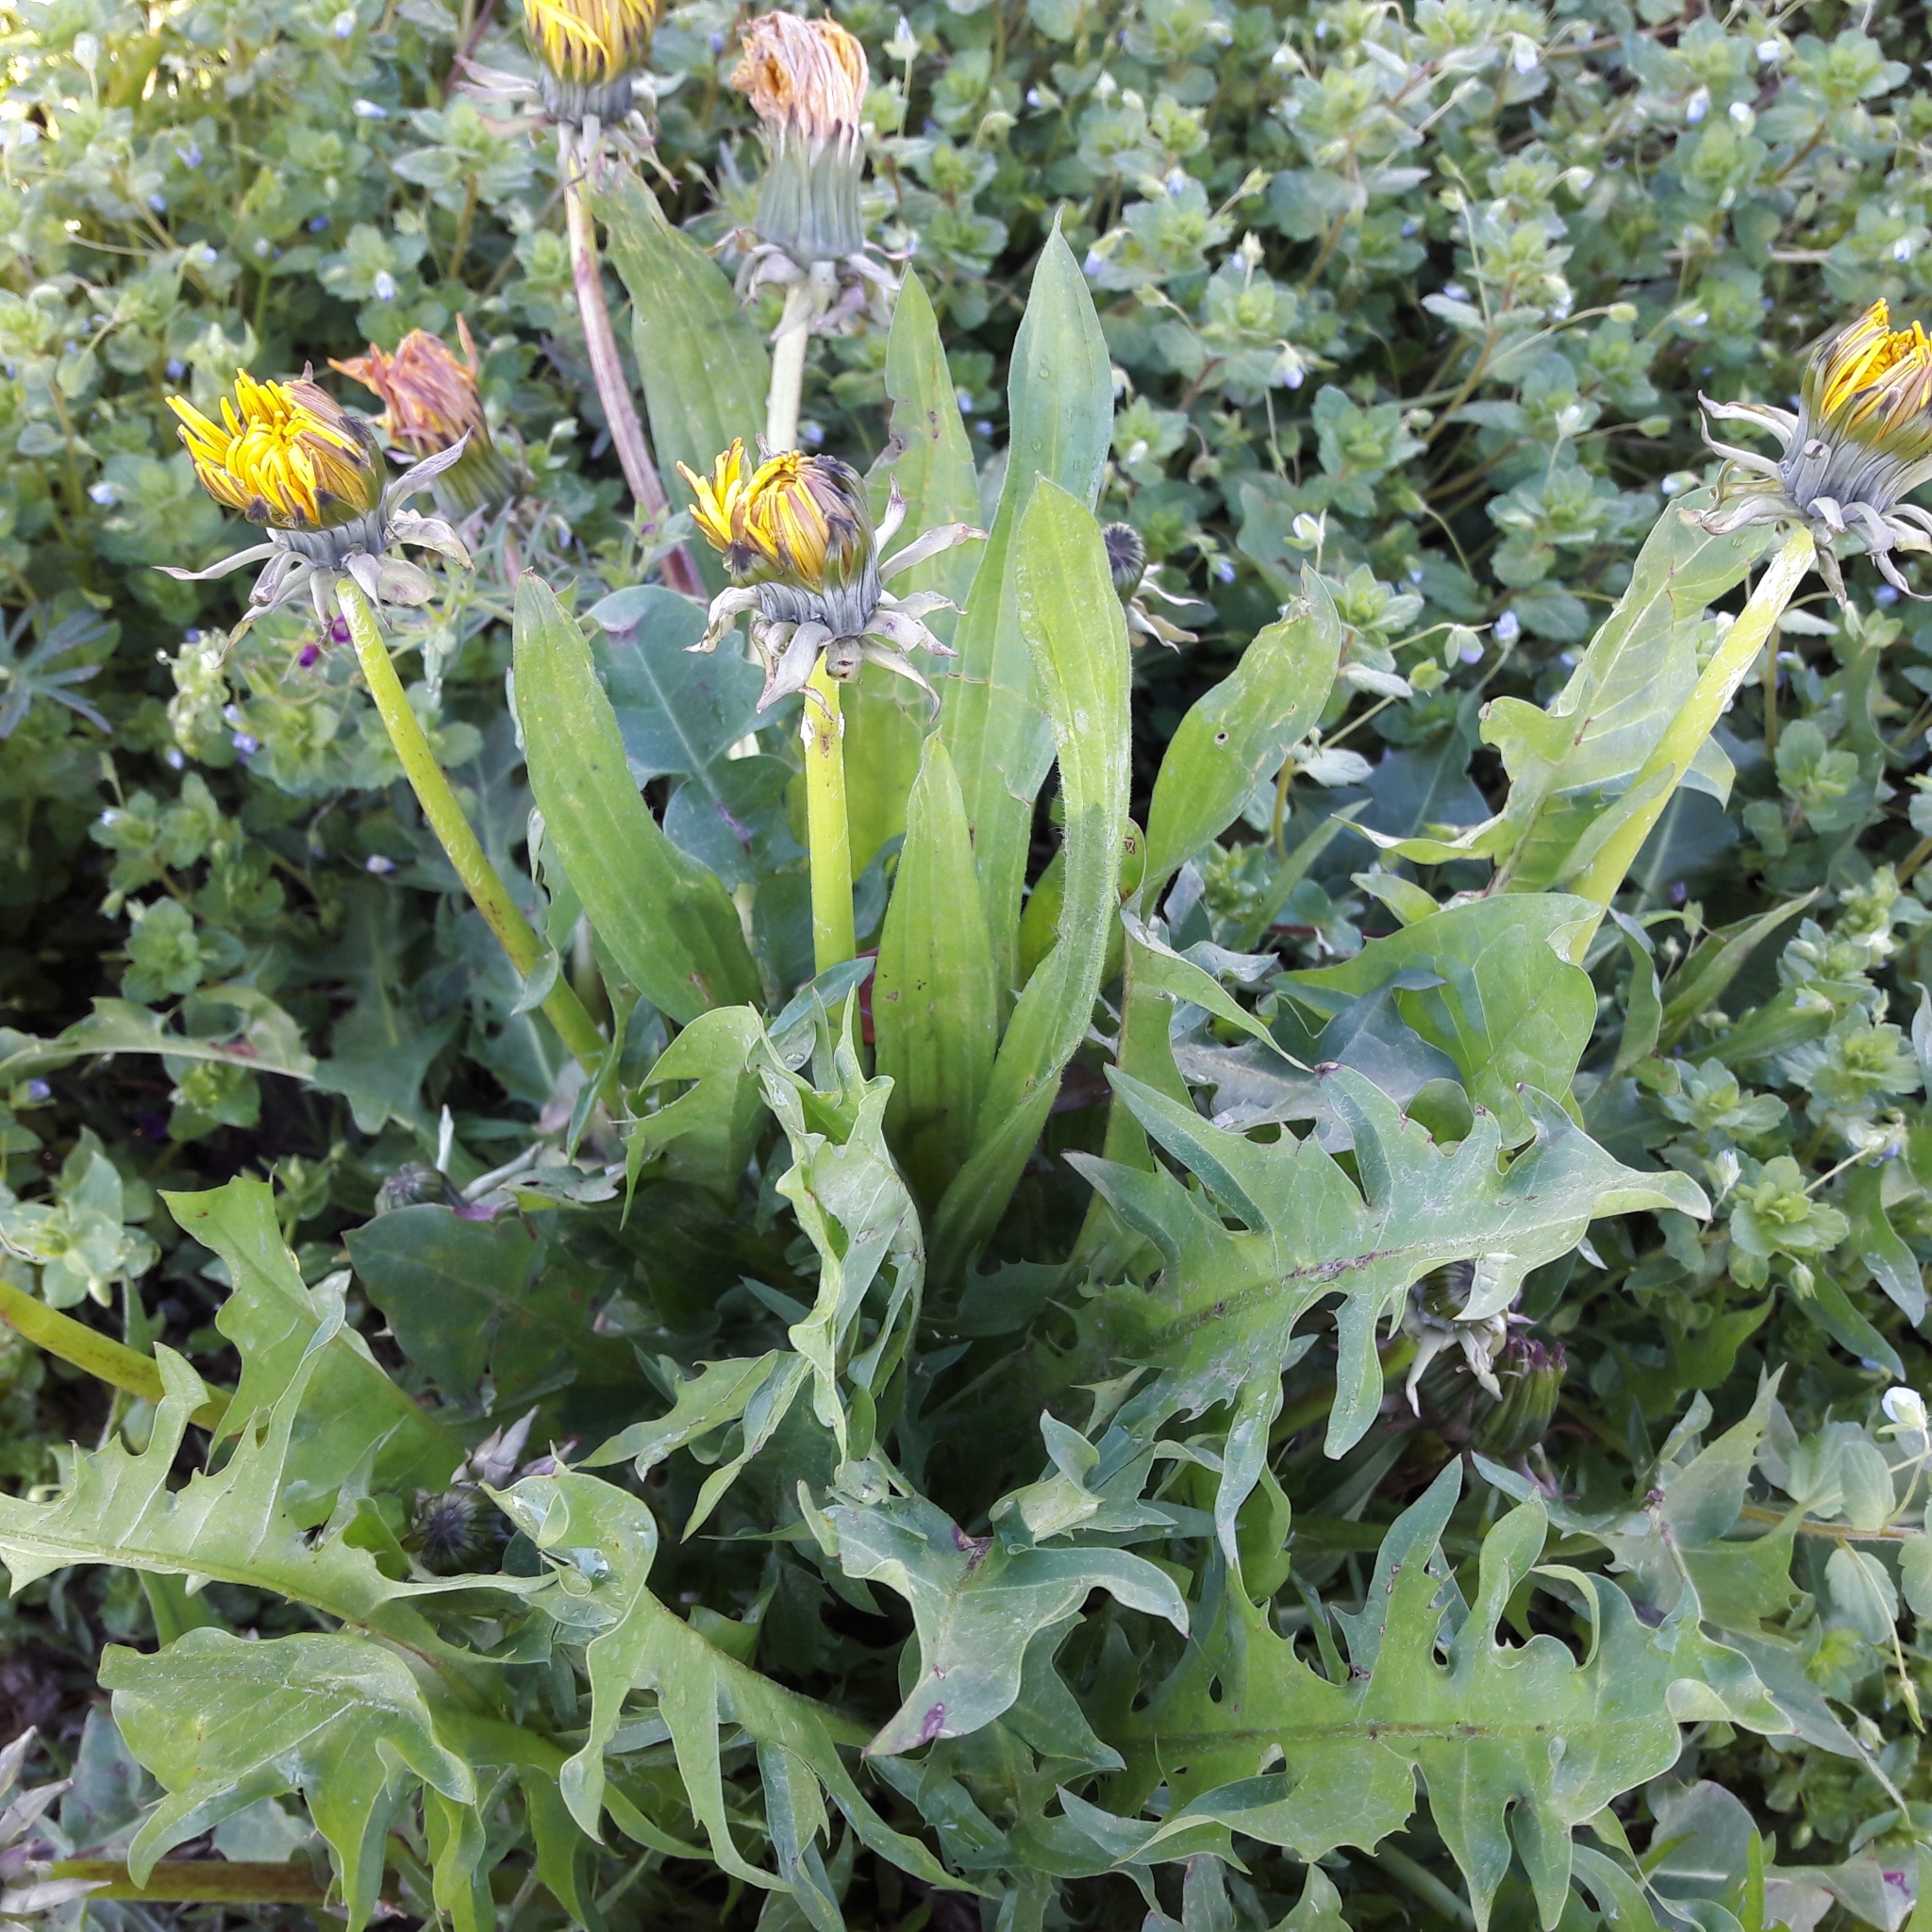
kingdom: Plantae
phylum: Tracheophyta
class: Magnoliopsida
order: Asterales
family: Asteraceae
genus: Taraxacum
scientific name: Taraxacum officinale
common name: Common dandelion
